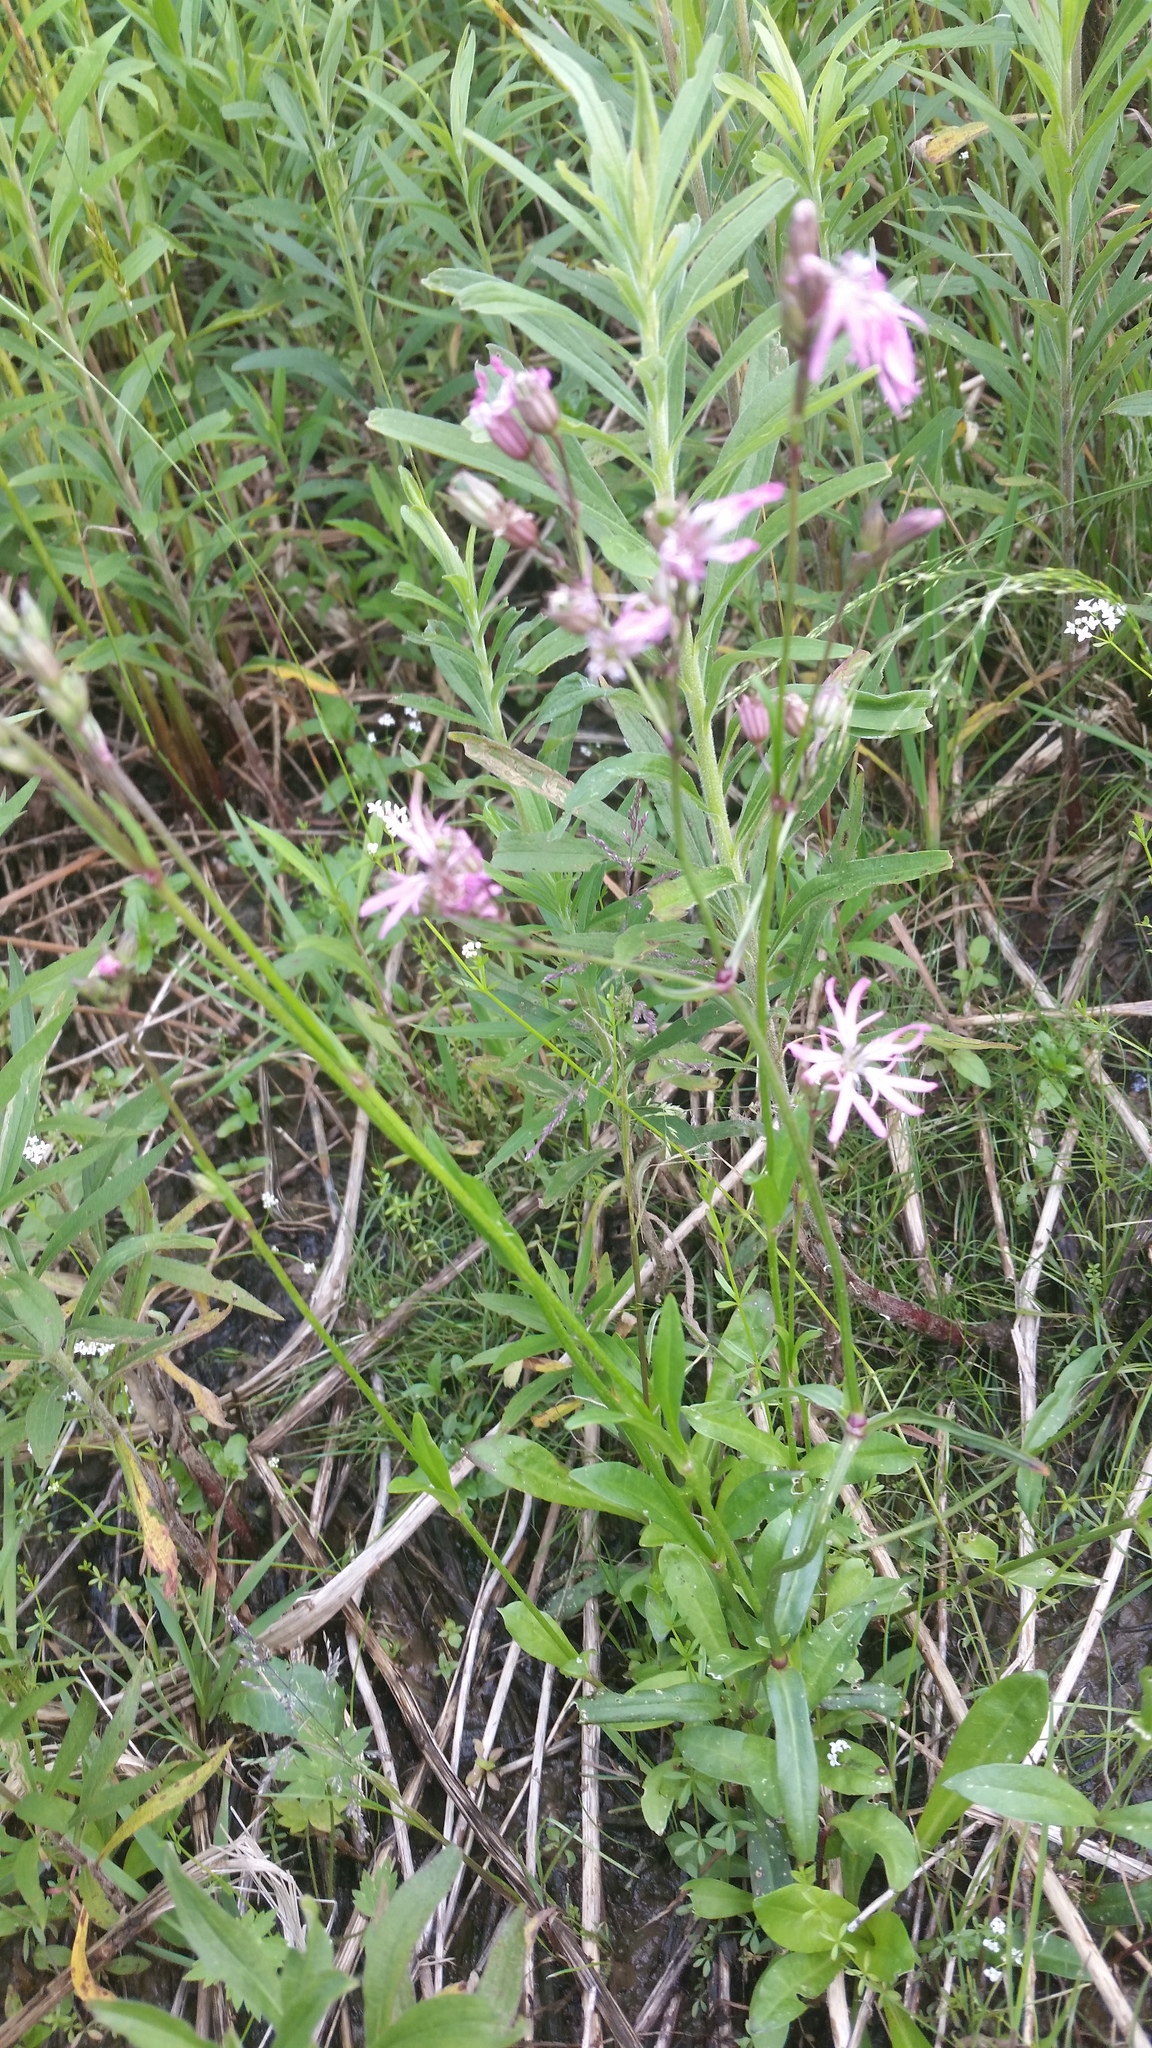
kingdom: Plantae
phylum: Tracheophyta
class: Magnoliopsida
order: Caryophyllales
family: Caryophyllaceae
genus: Silene
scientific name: Silene flos-cuculi
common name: Ragged-robin
